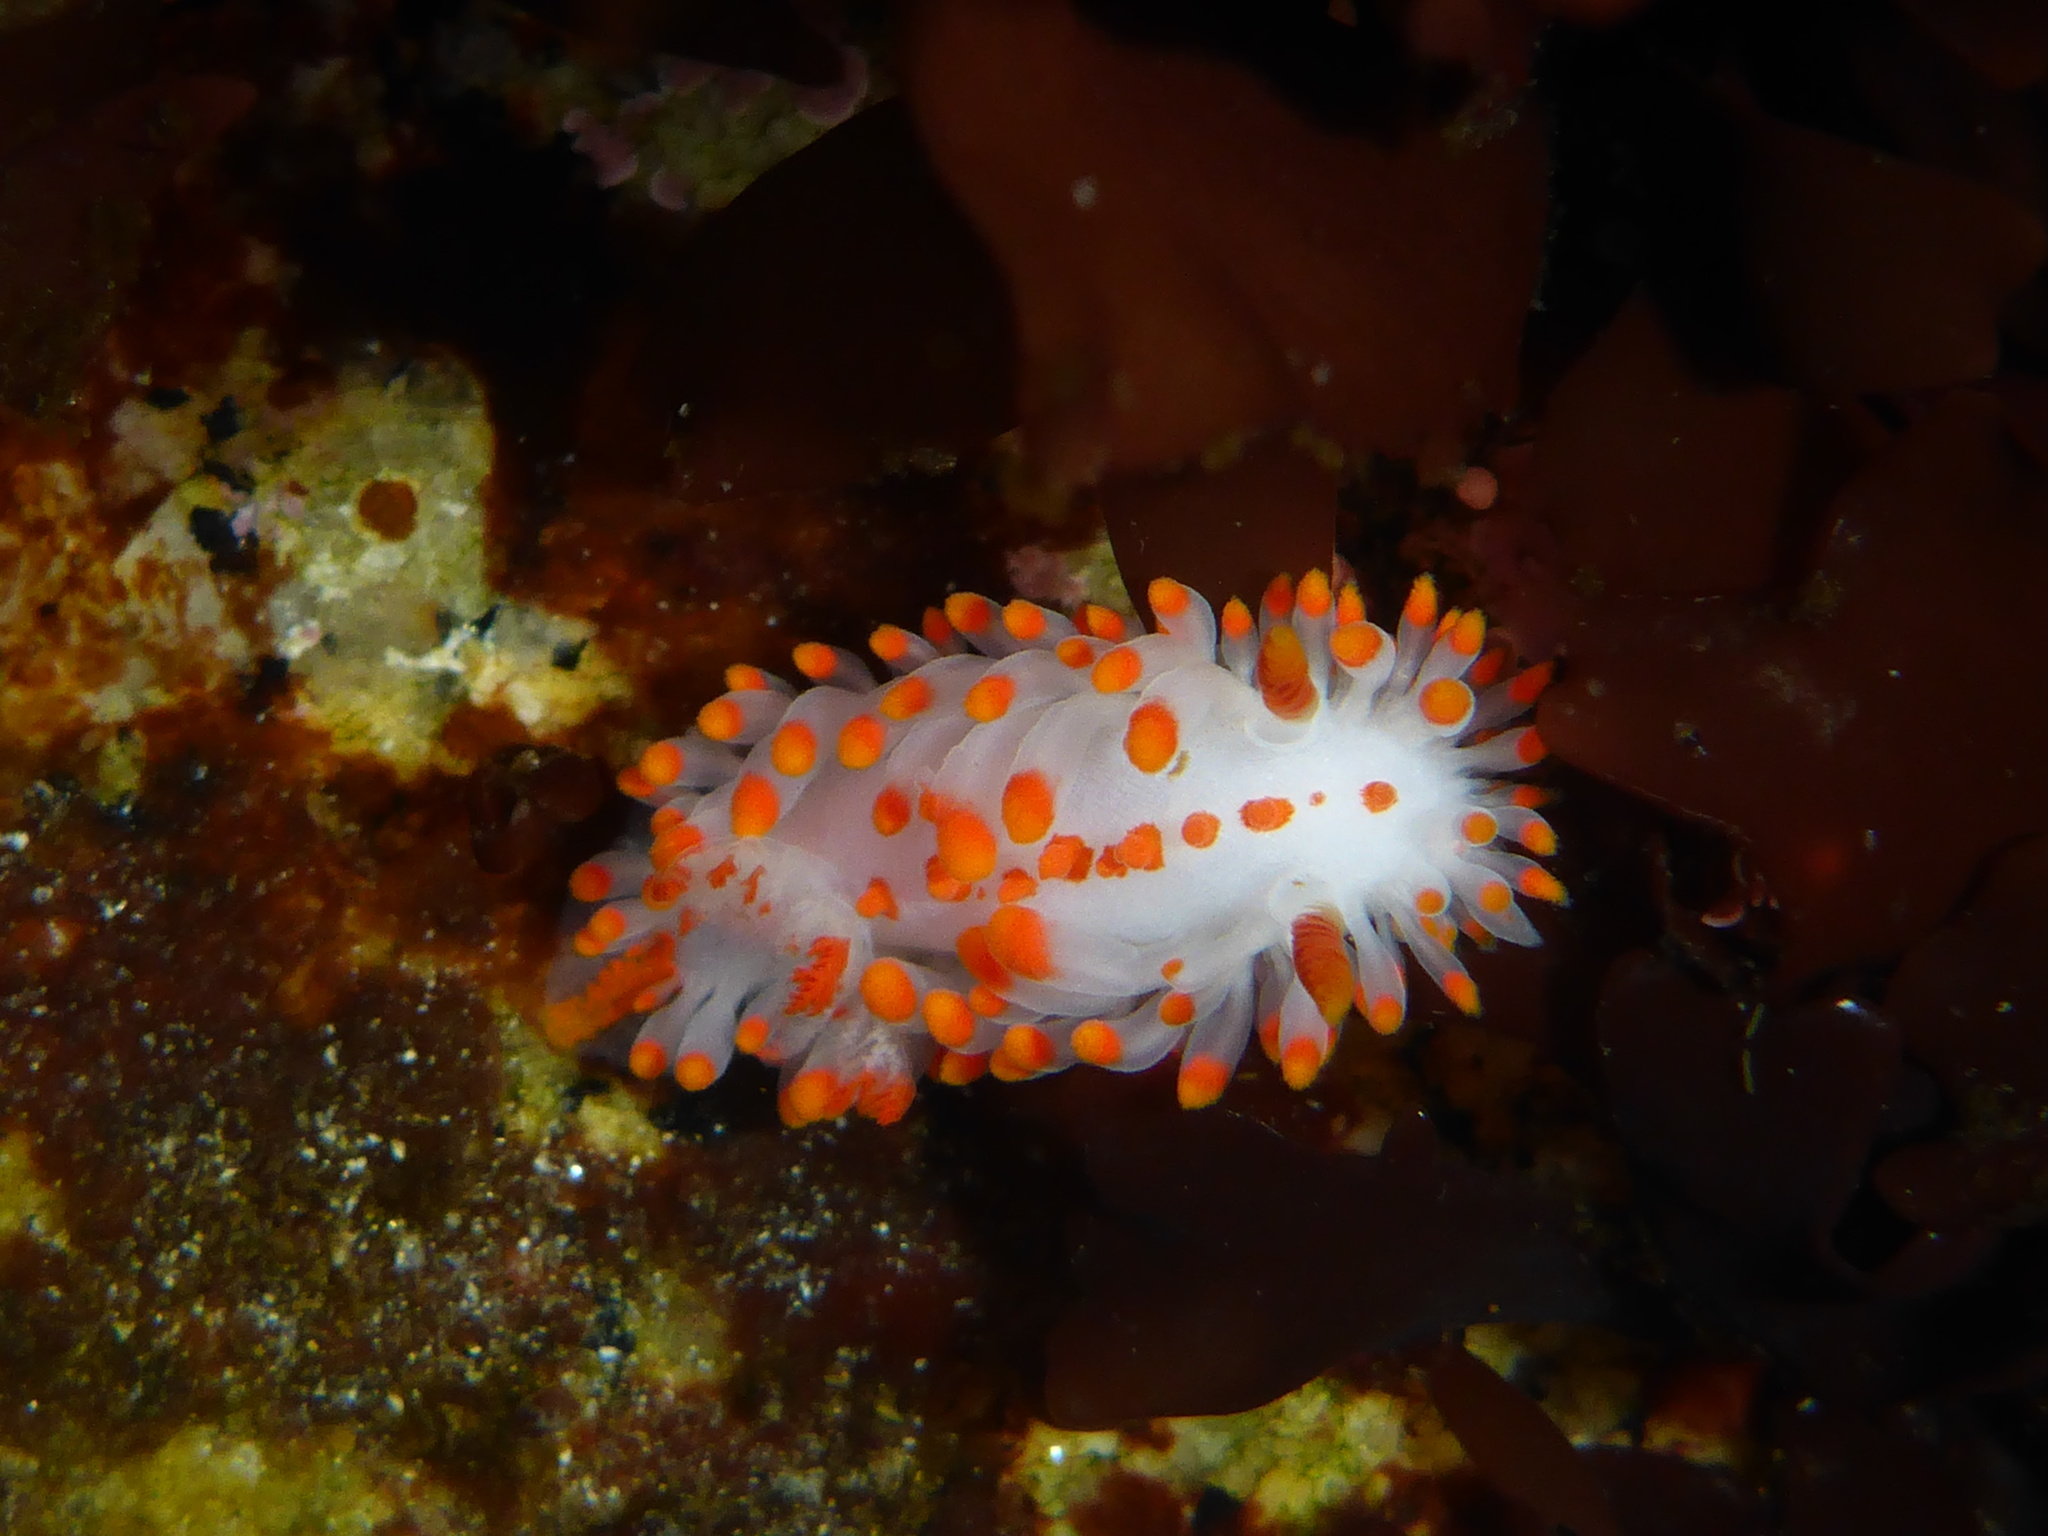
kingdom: Animalia
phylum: Mollusca
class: Gastropoda
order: Nudibranchia
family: Polyceridae
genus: Limacia
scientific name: Limacia mcdonaldi
